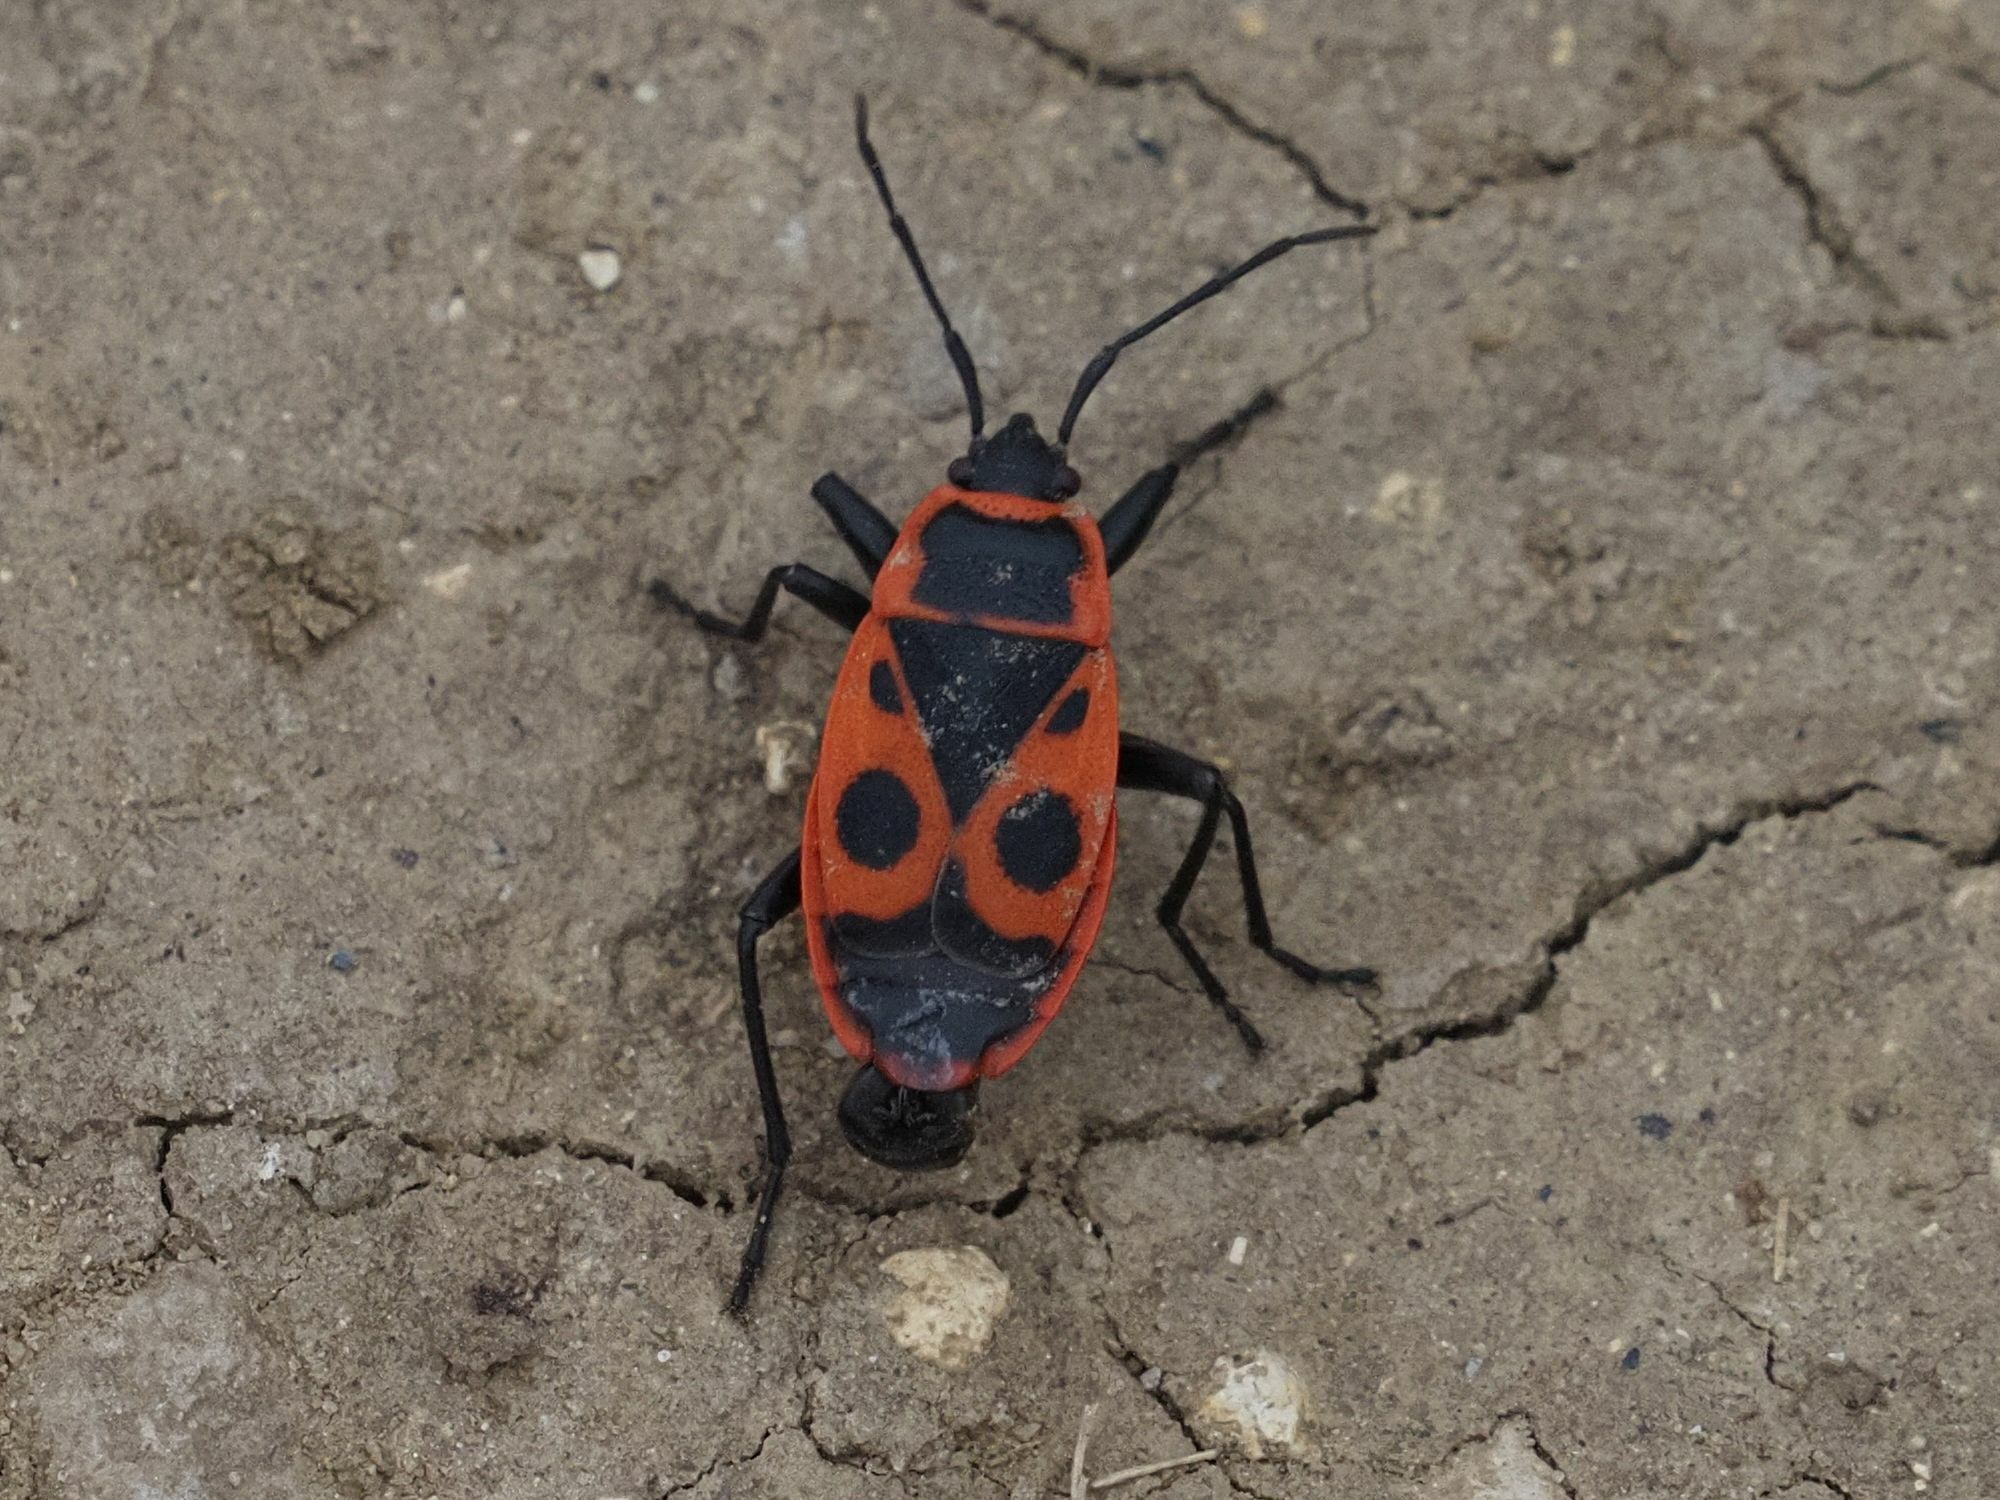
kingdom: Animalia
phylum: Arthropoda
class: Insecta
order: Hemiptera
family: Pyrrhocoridae
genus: Pyrrhocoris
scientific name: Pyrrhocoris apterus
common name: Firebug
